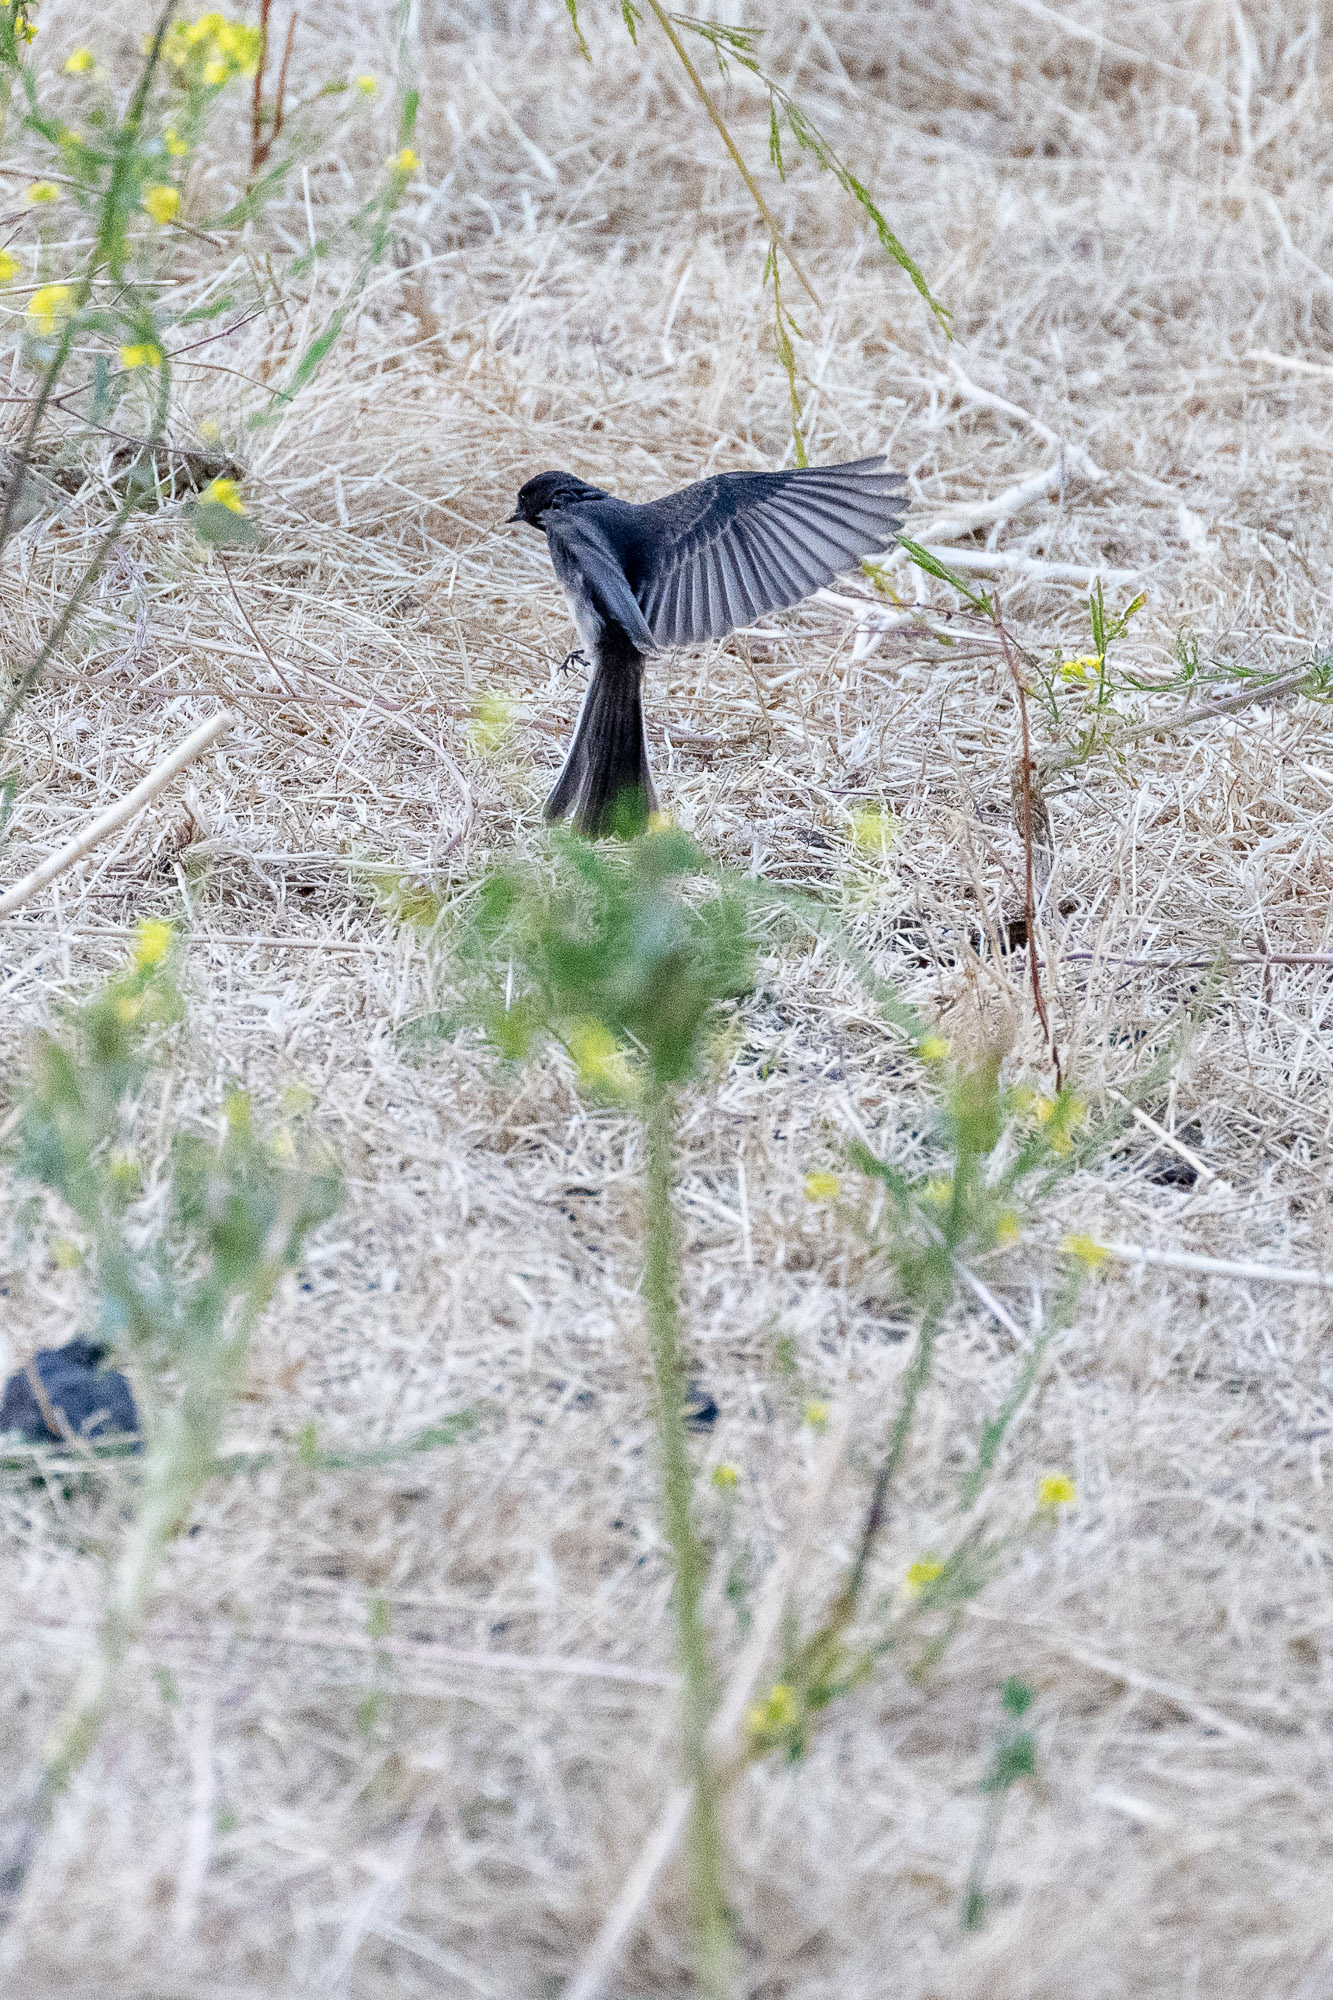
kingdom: Animalia
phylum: Chordata
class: Aves
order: Passeriformes
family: Tyrannidae
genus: Sayornis
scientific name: Sayornis nigricans
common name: Black phoebe
